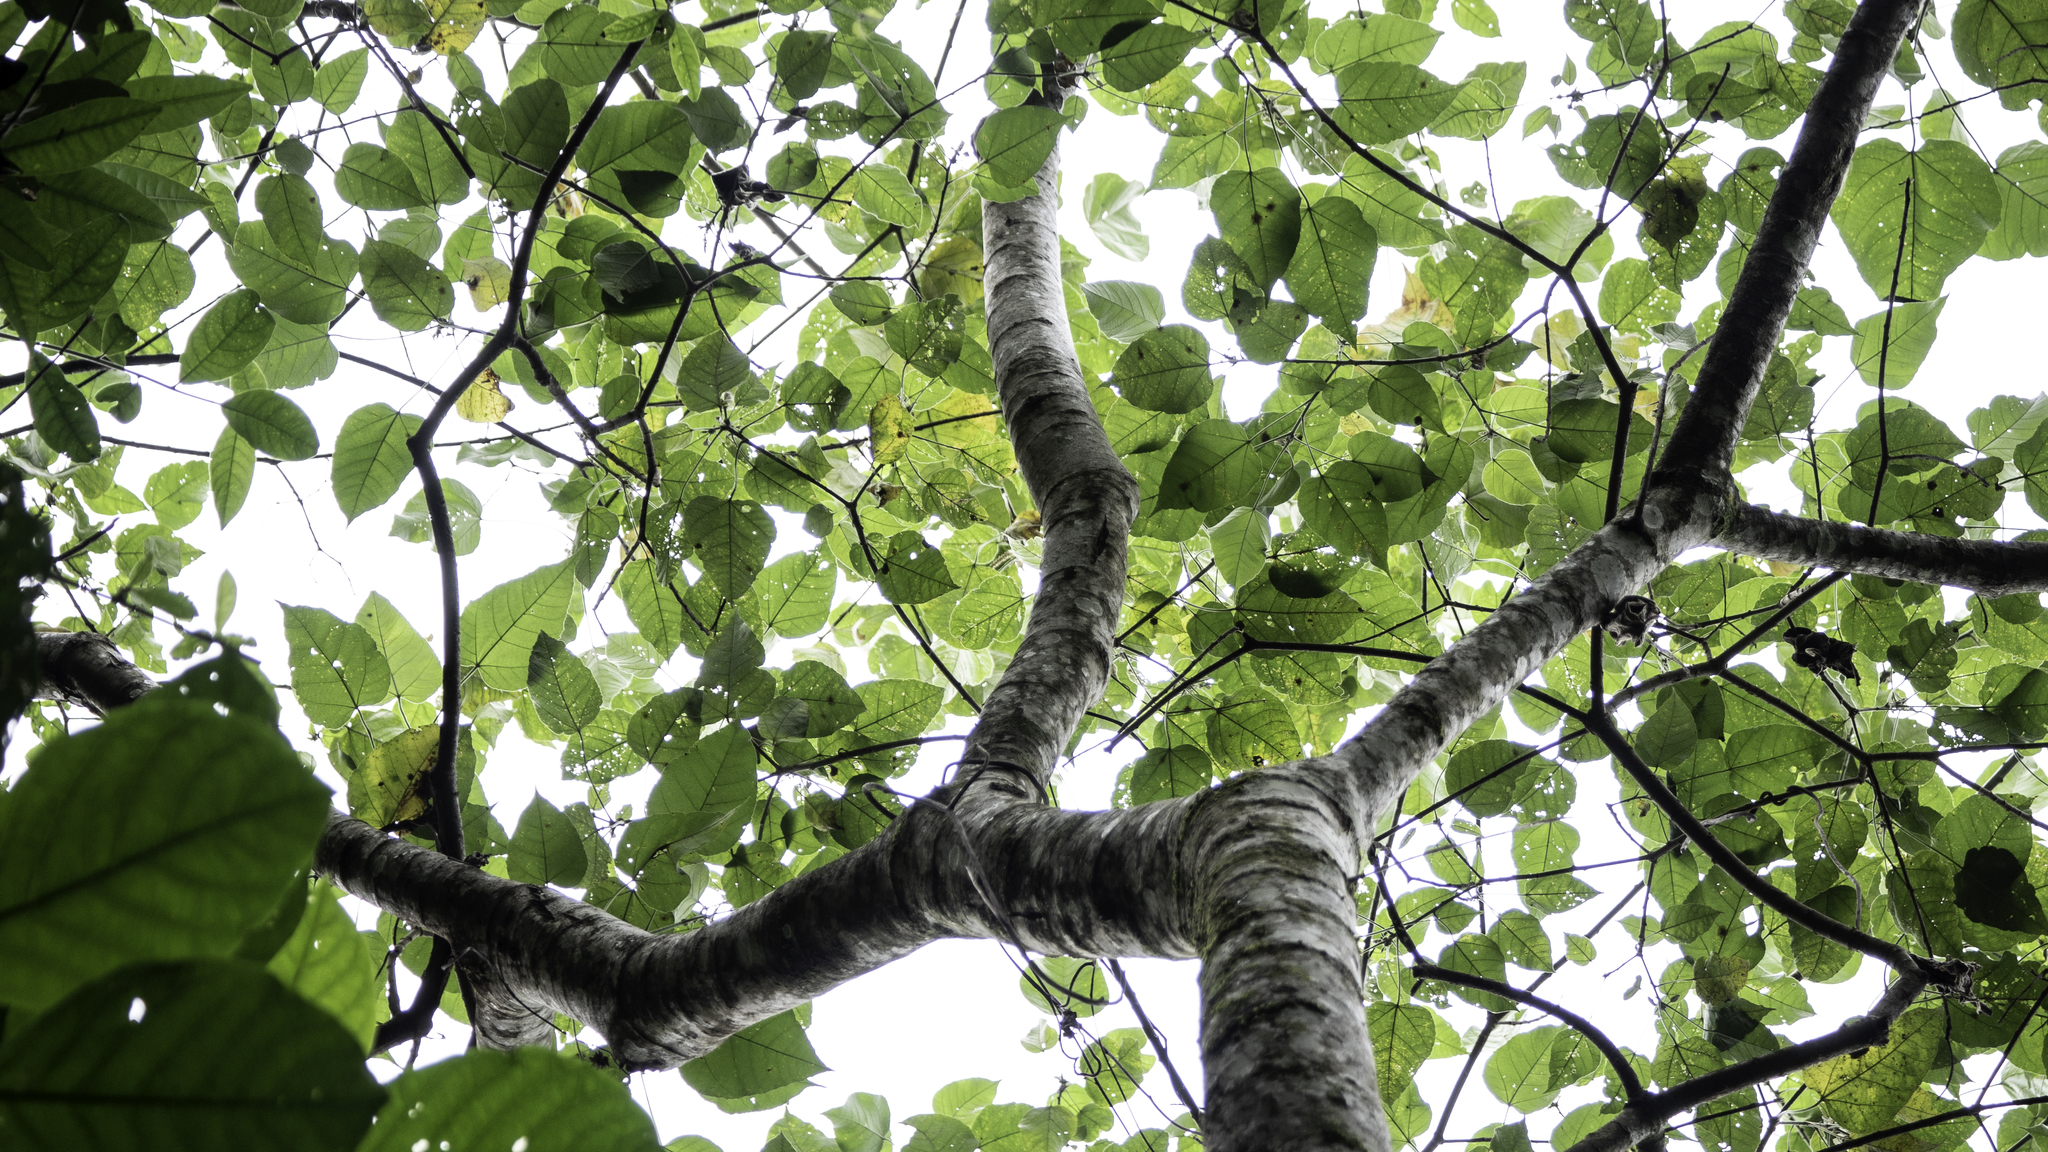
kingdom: Plantae
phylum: Tracheophyta
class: Magnoliopsida
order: Malpighiales
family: Euphorbiaceae
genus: Croton
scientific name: Croton draco
